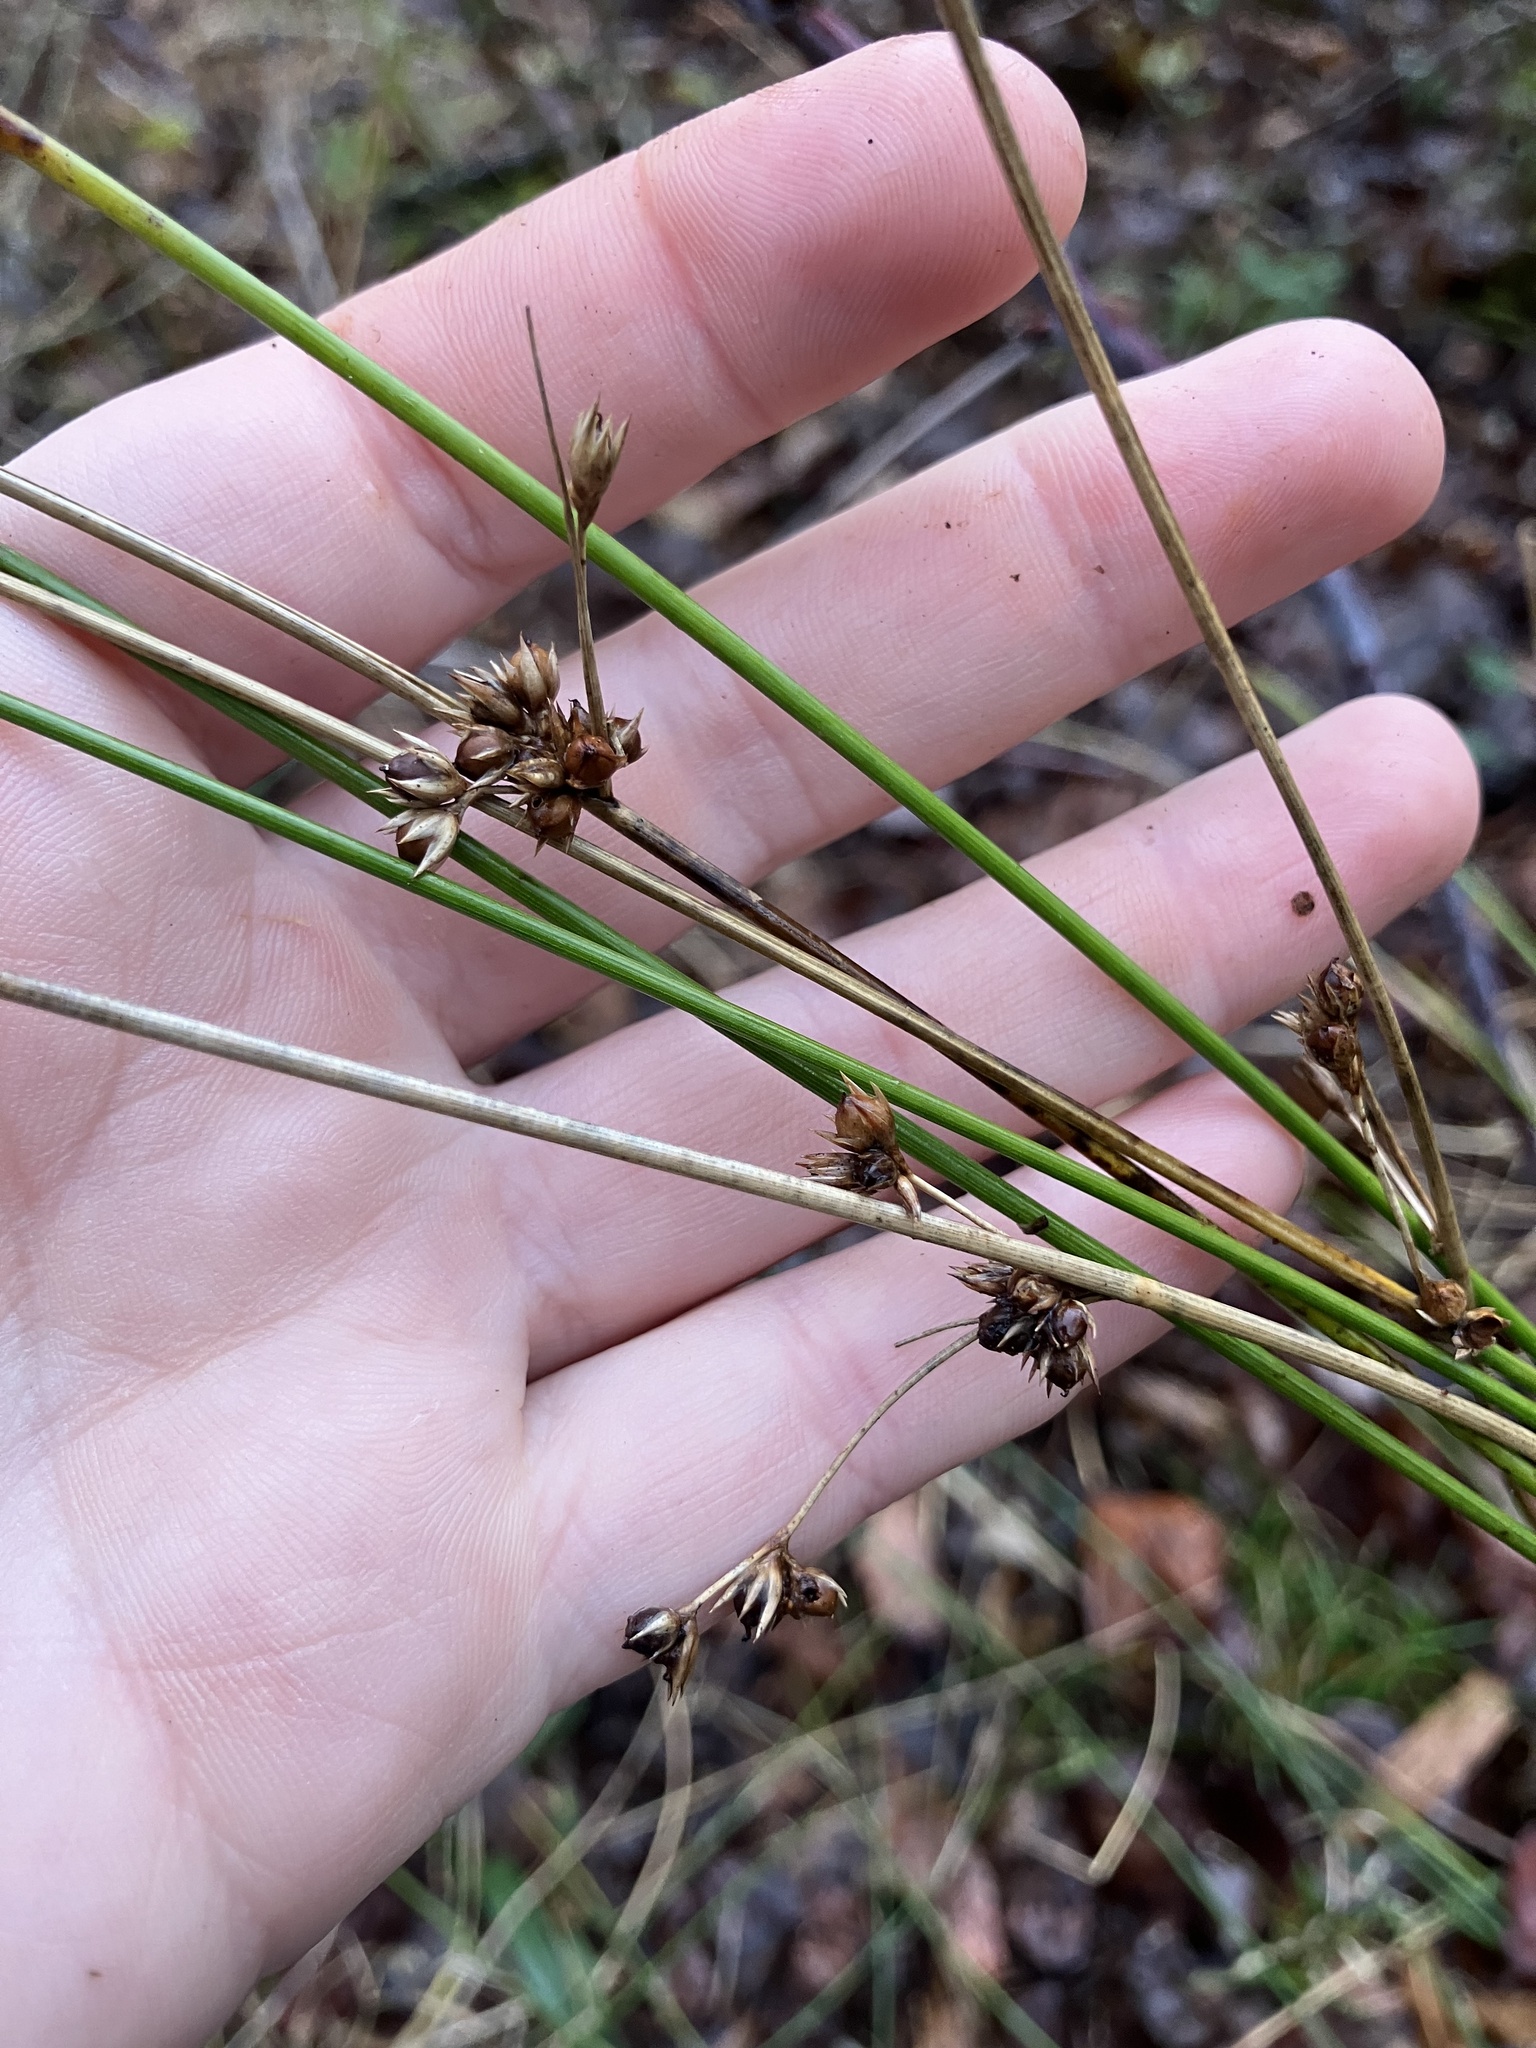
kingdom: Plantae
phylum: Tracheophyta
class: Liliopsida
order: Poales
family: Juncaceae
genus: Juncus
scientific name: Juncus coriaceus
